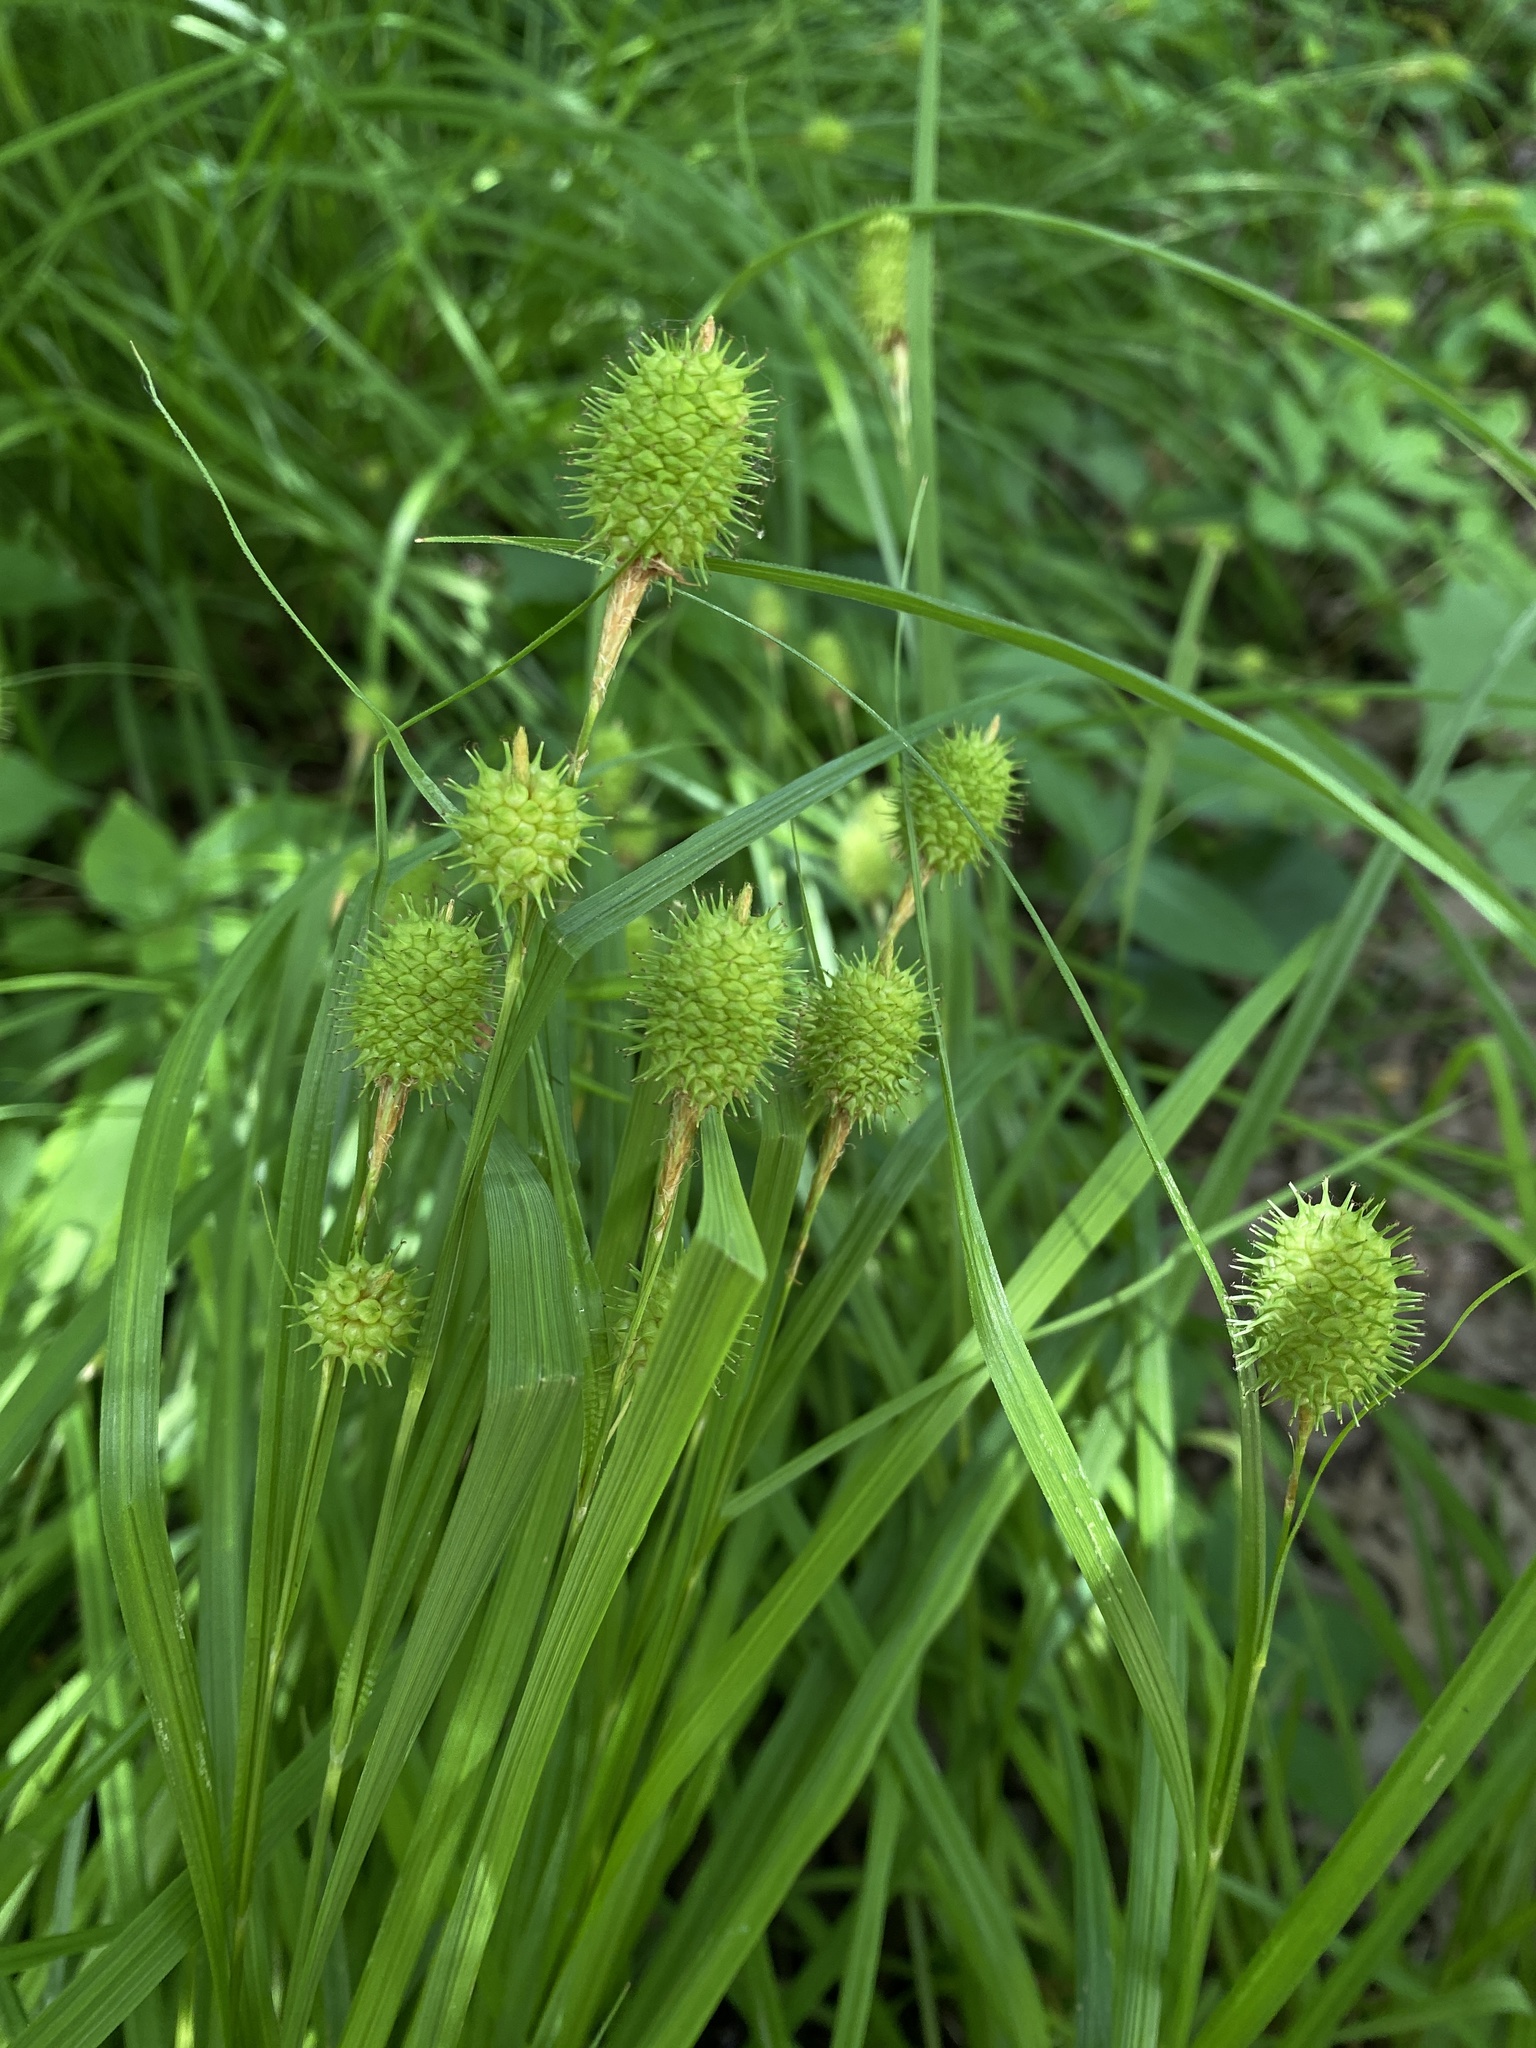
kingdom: Plantae
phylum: Tracheophyta
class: Liliopsida
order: Poales
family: Cyperaceae
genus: Carex
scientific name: Carex squarrosa
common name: Narrow-leaved cattail sedge
